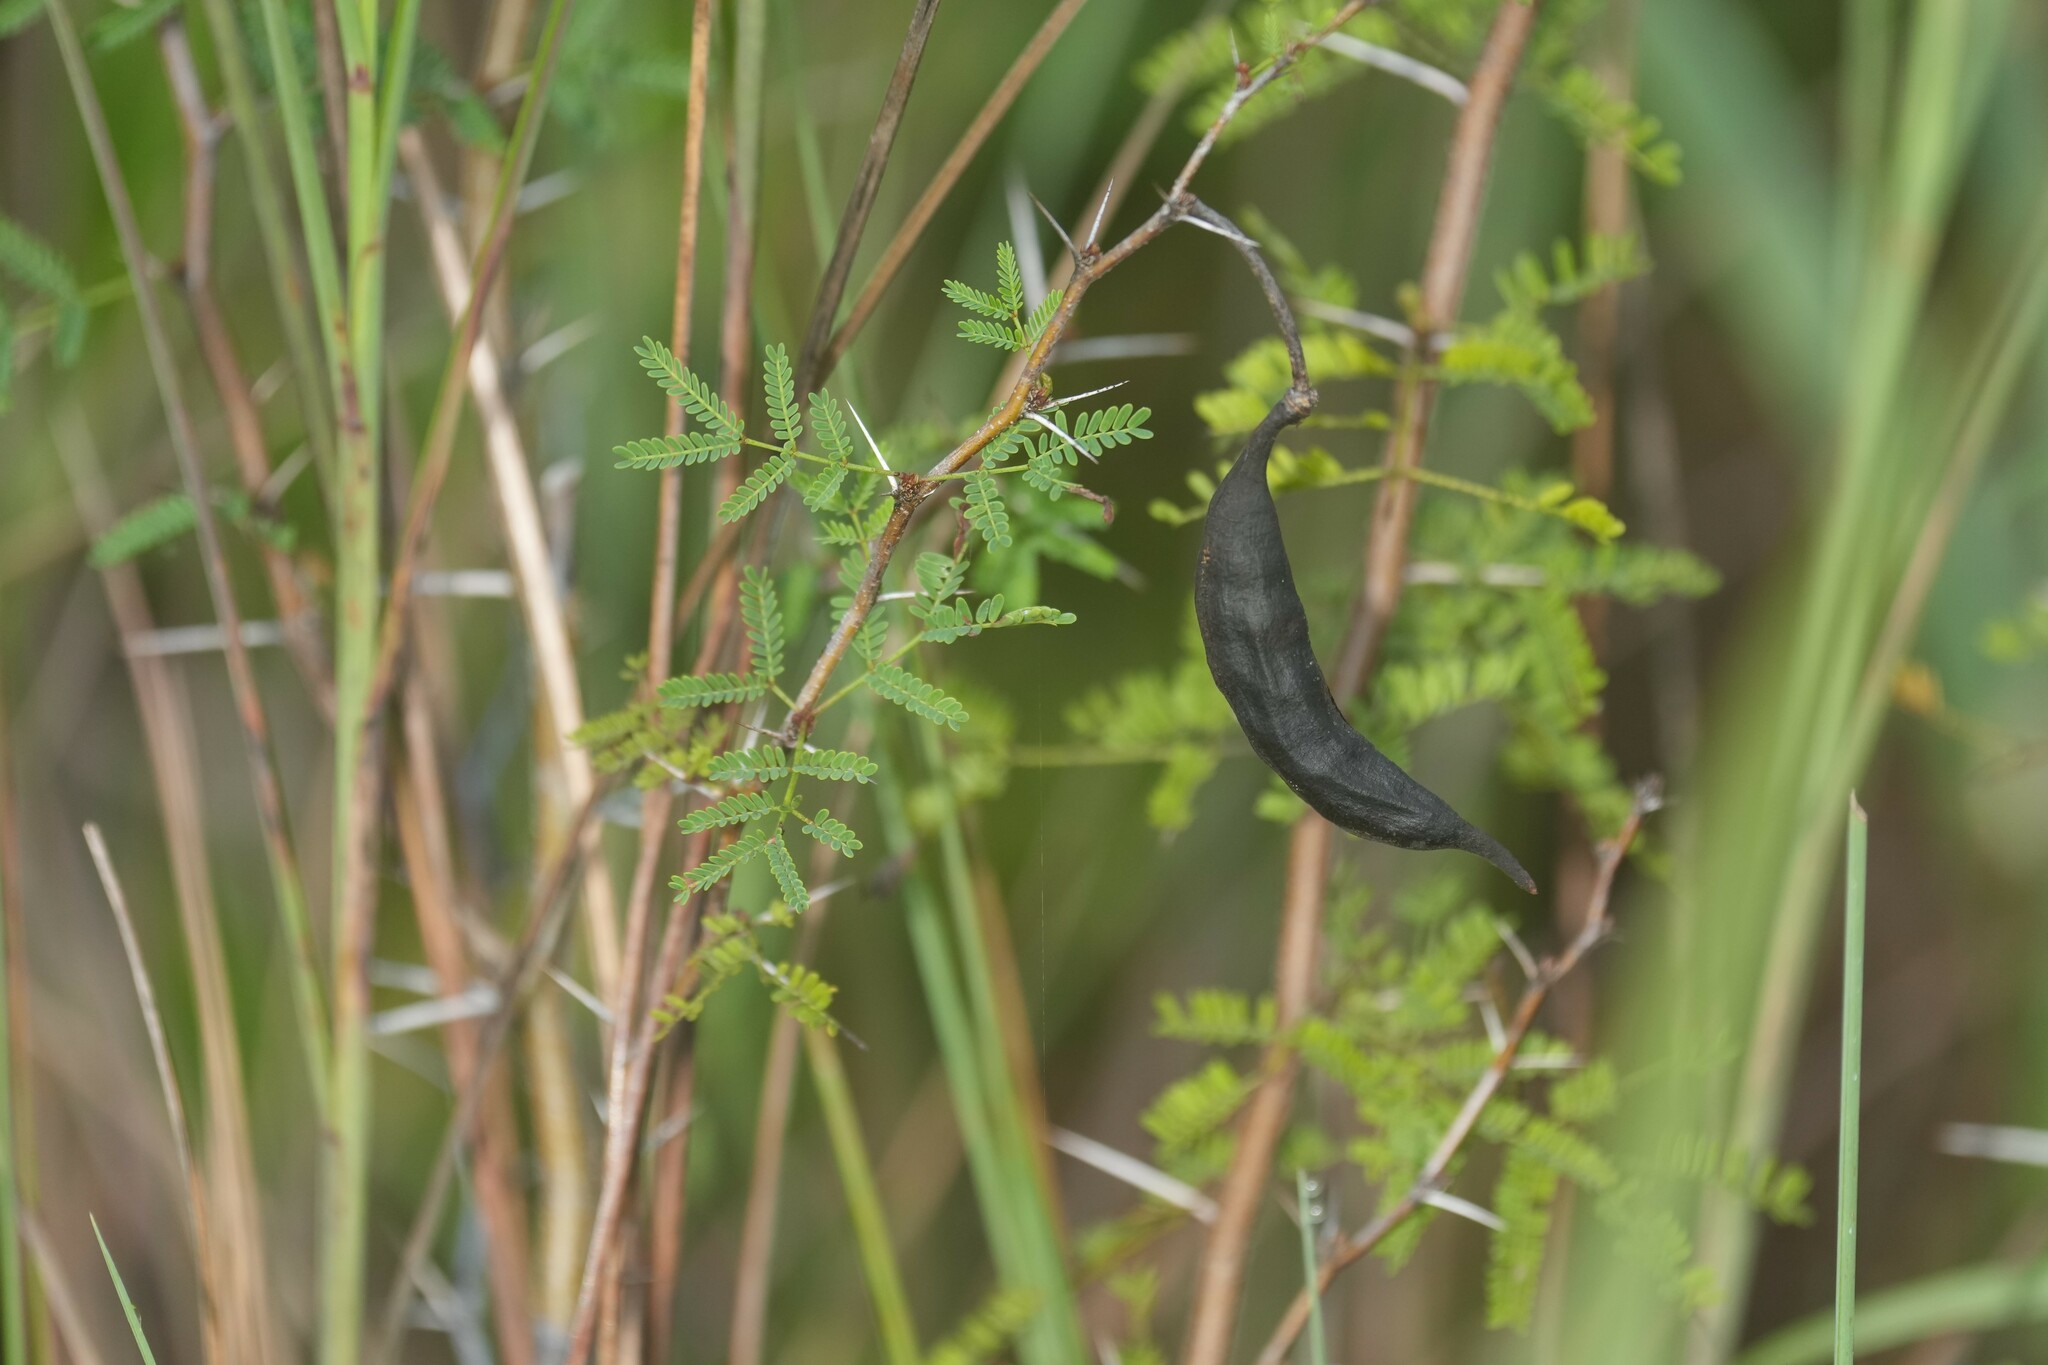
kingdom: Plantae
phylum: Tracheophyta
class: Magnoliopsida
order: Fabales
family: Fabaceae
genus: Vachellia
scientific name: Vachellia farnesiana
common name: Sweet acacia
